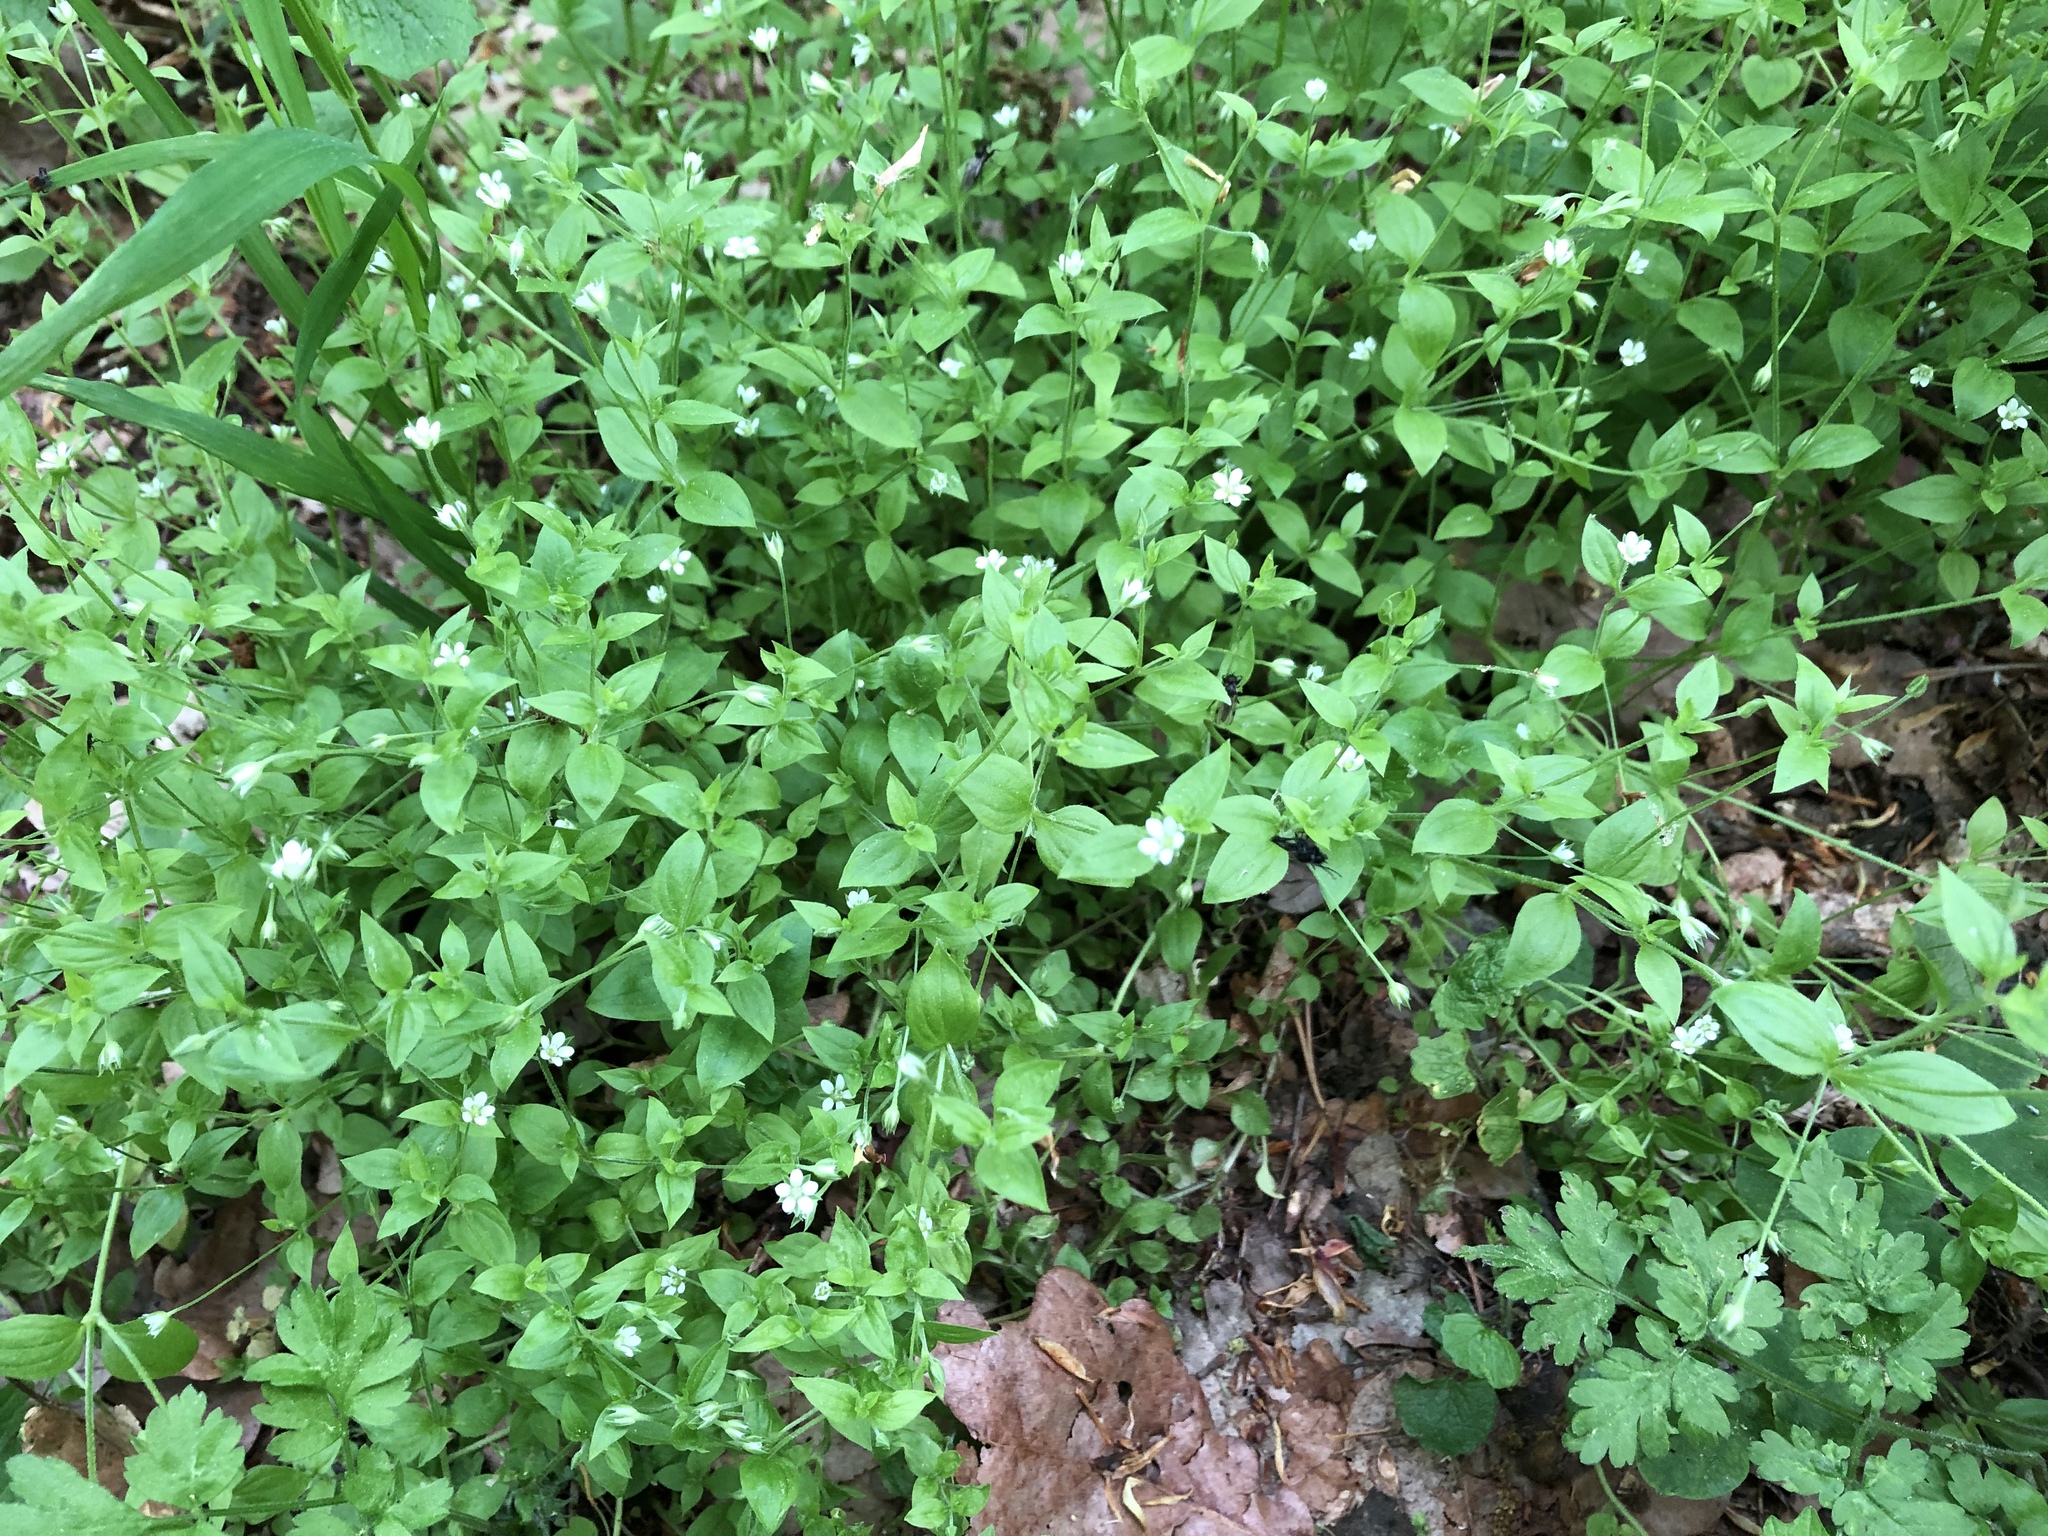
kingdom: Plantae
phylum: Tracheophyta
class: Magnoliopsida
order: Caryophyllales
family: Caryophyllaceae
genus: Moehringia
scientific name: Moehringia trinervia
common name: Three-nerved sandwort
